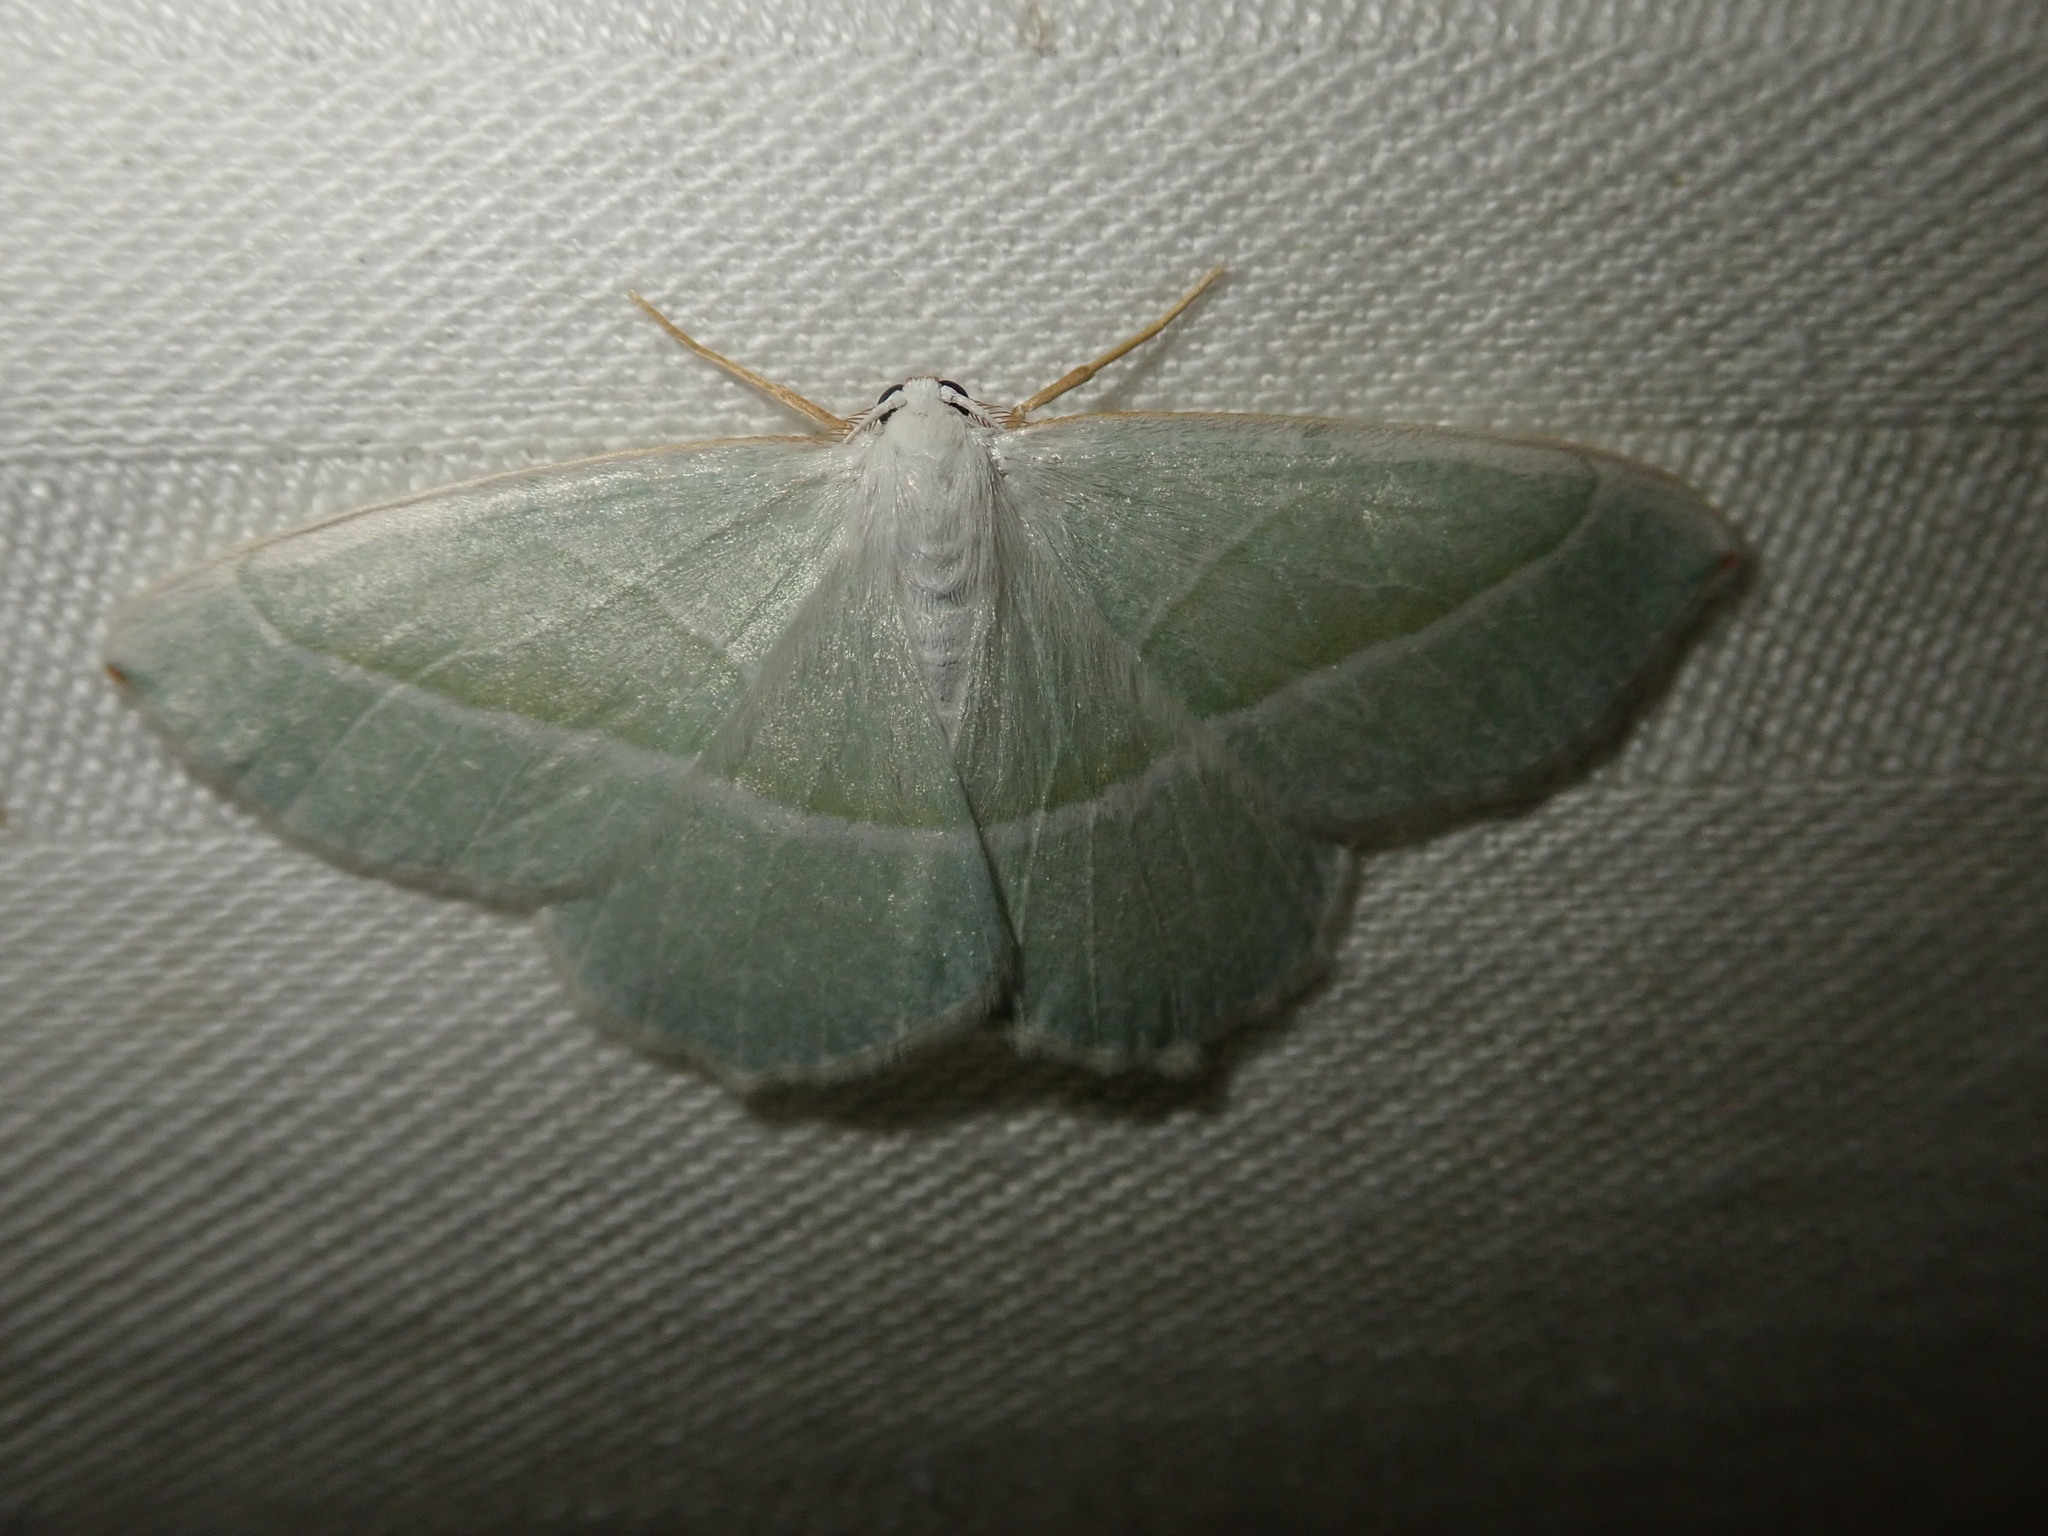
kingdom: Animalia
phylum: Arthropoda
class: Insecta
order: Lepidoptera
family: Geometridae
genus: Campaea
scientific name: Campaea margaritaria
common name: Light emerald
